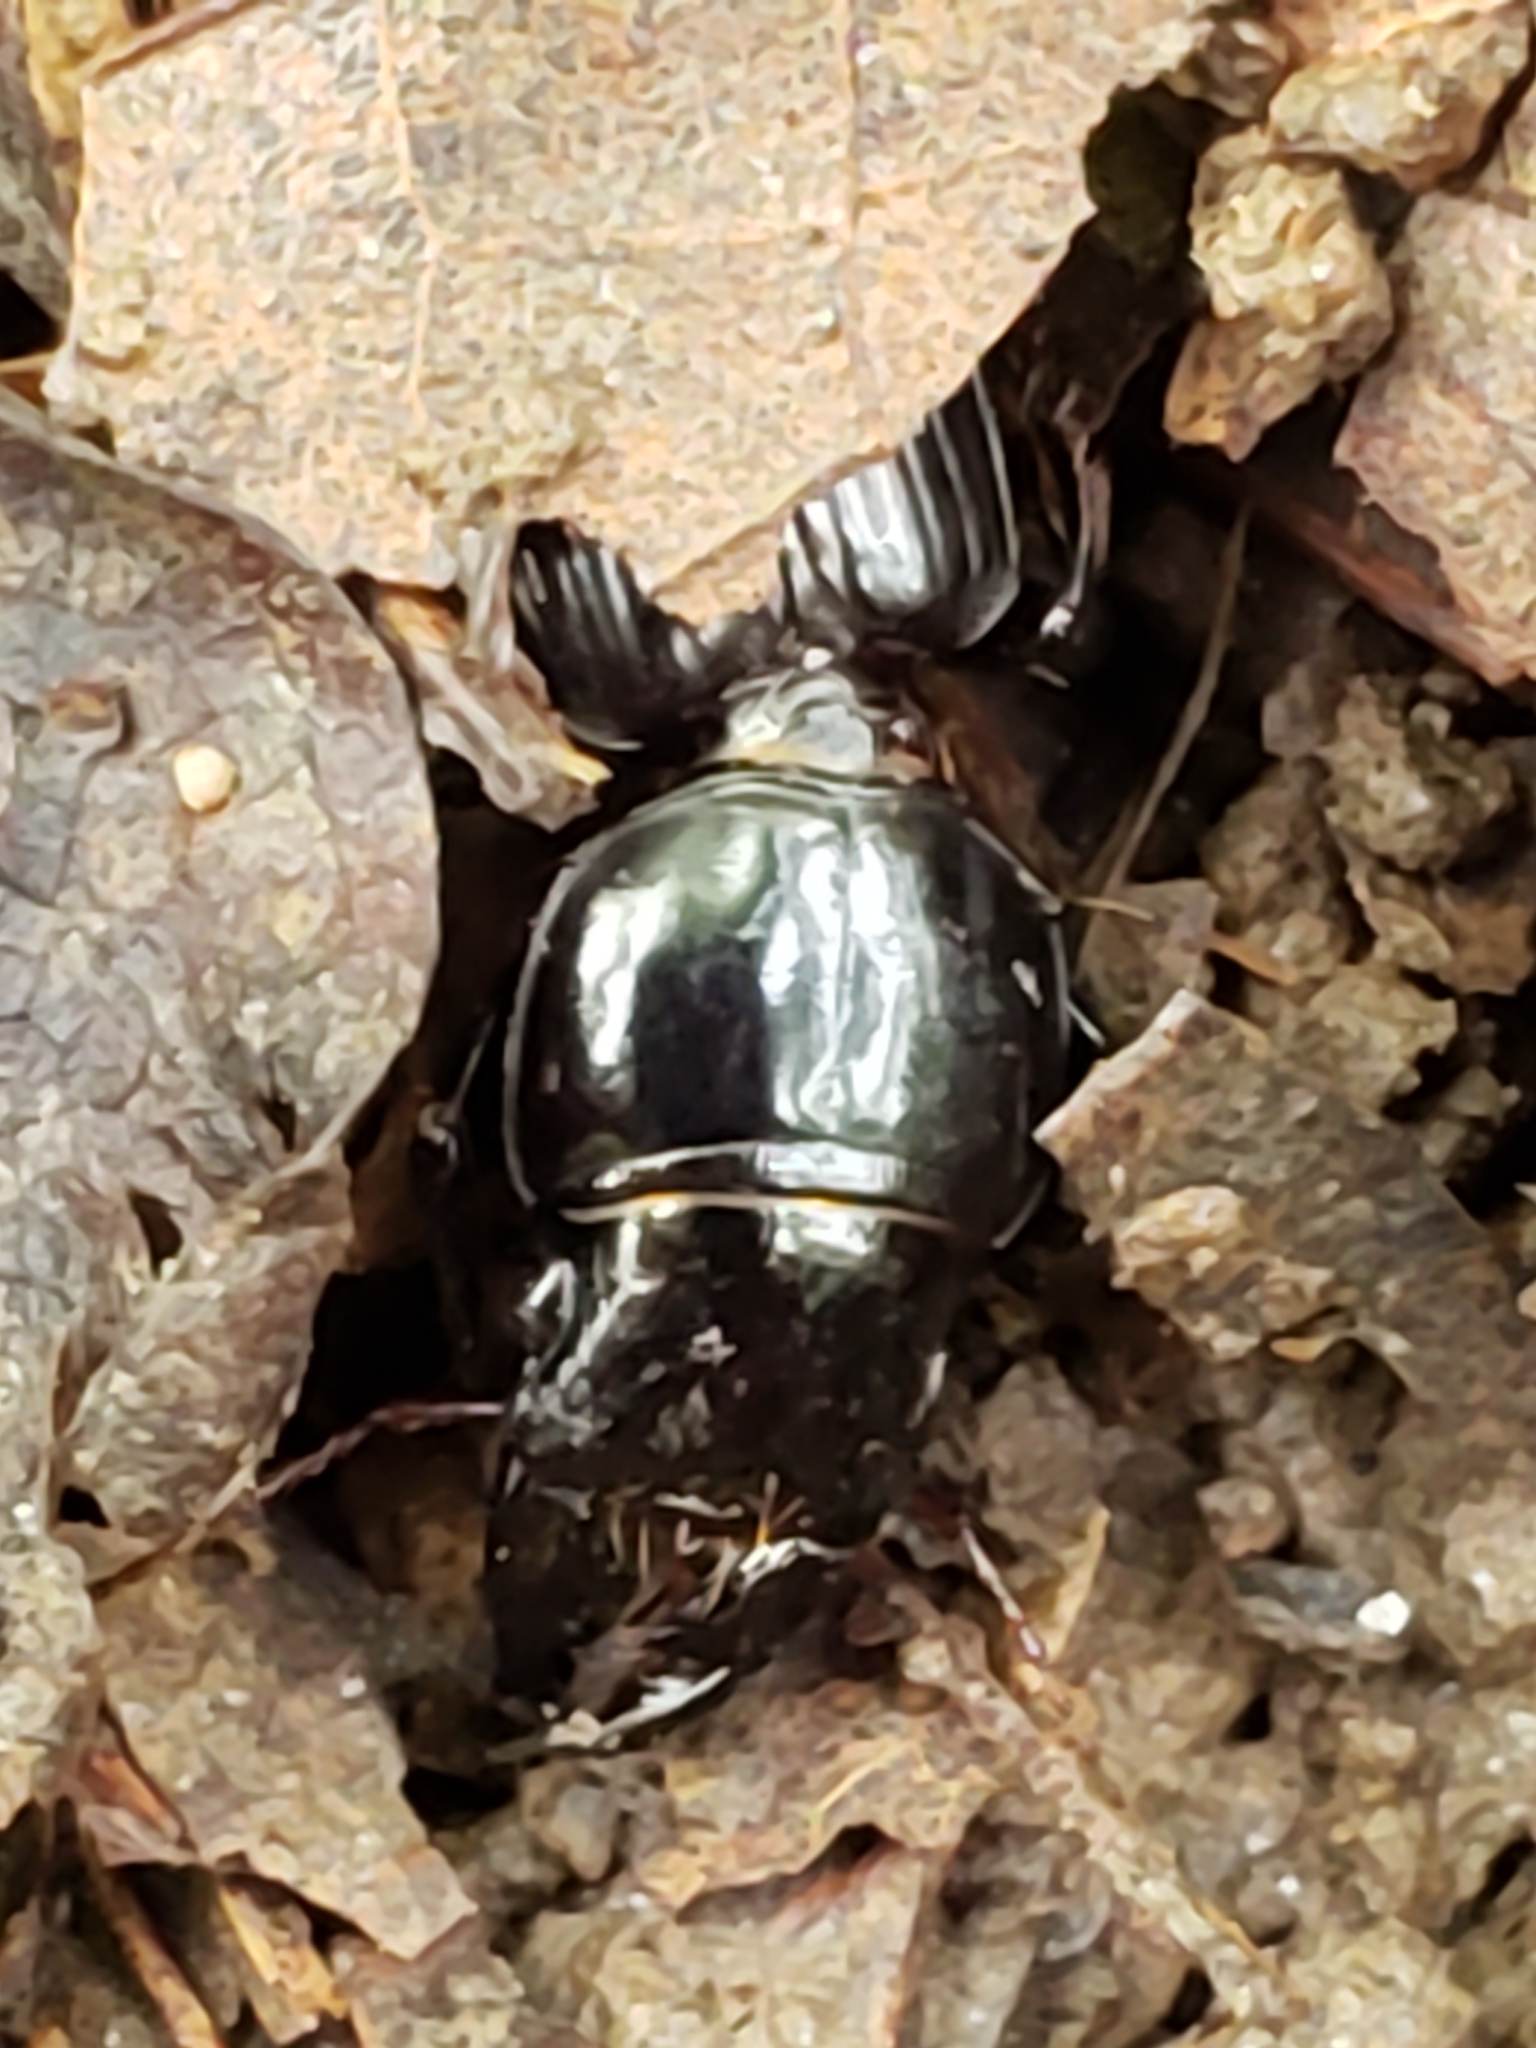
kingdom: Animalia
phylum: Arthropoda
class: Insecta
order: Coleoptera
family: Carabidae
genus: Scarites
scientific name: Scarites subterraneus
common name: Big-headed ground beetle
